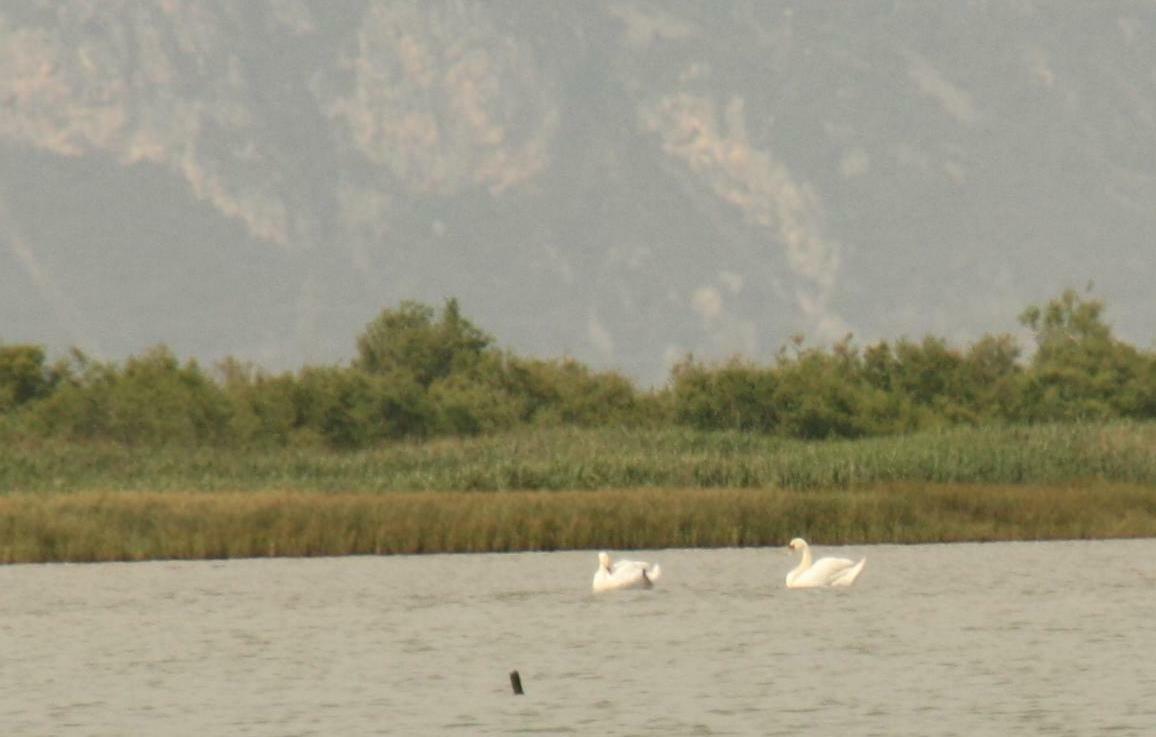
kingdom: Animalia
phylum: Chordata
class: Aves
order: Anseriformes
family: Anatidae
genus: Cygnus
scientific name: Cygnus olor
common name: Mute swan
